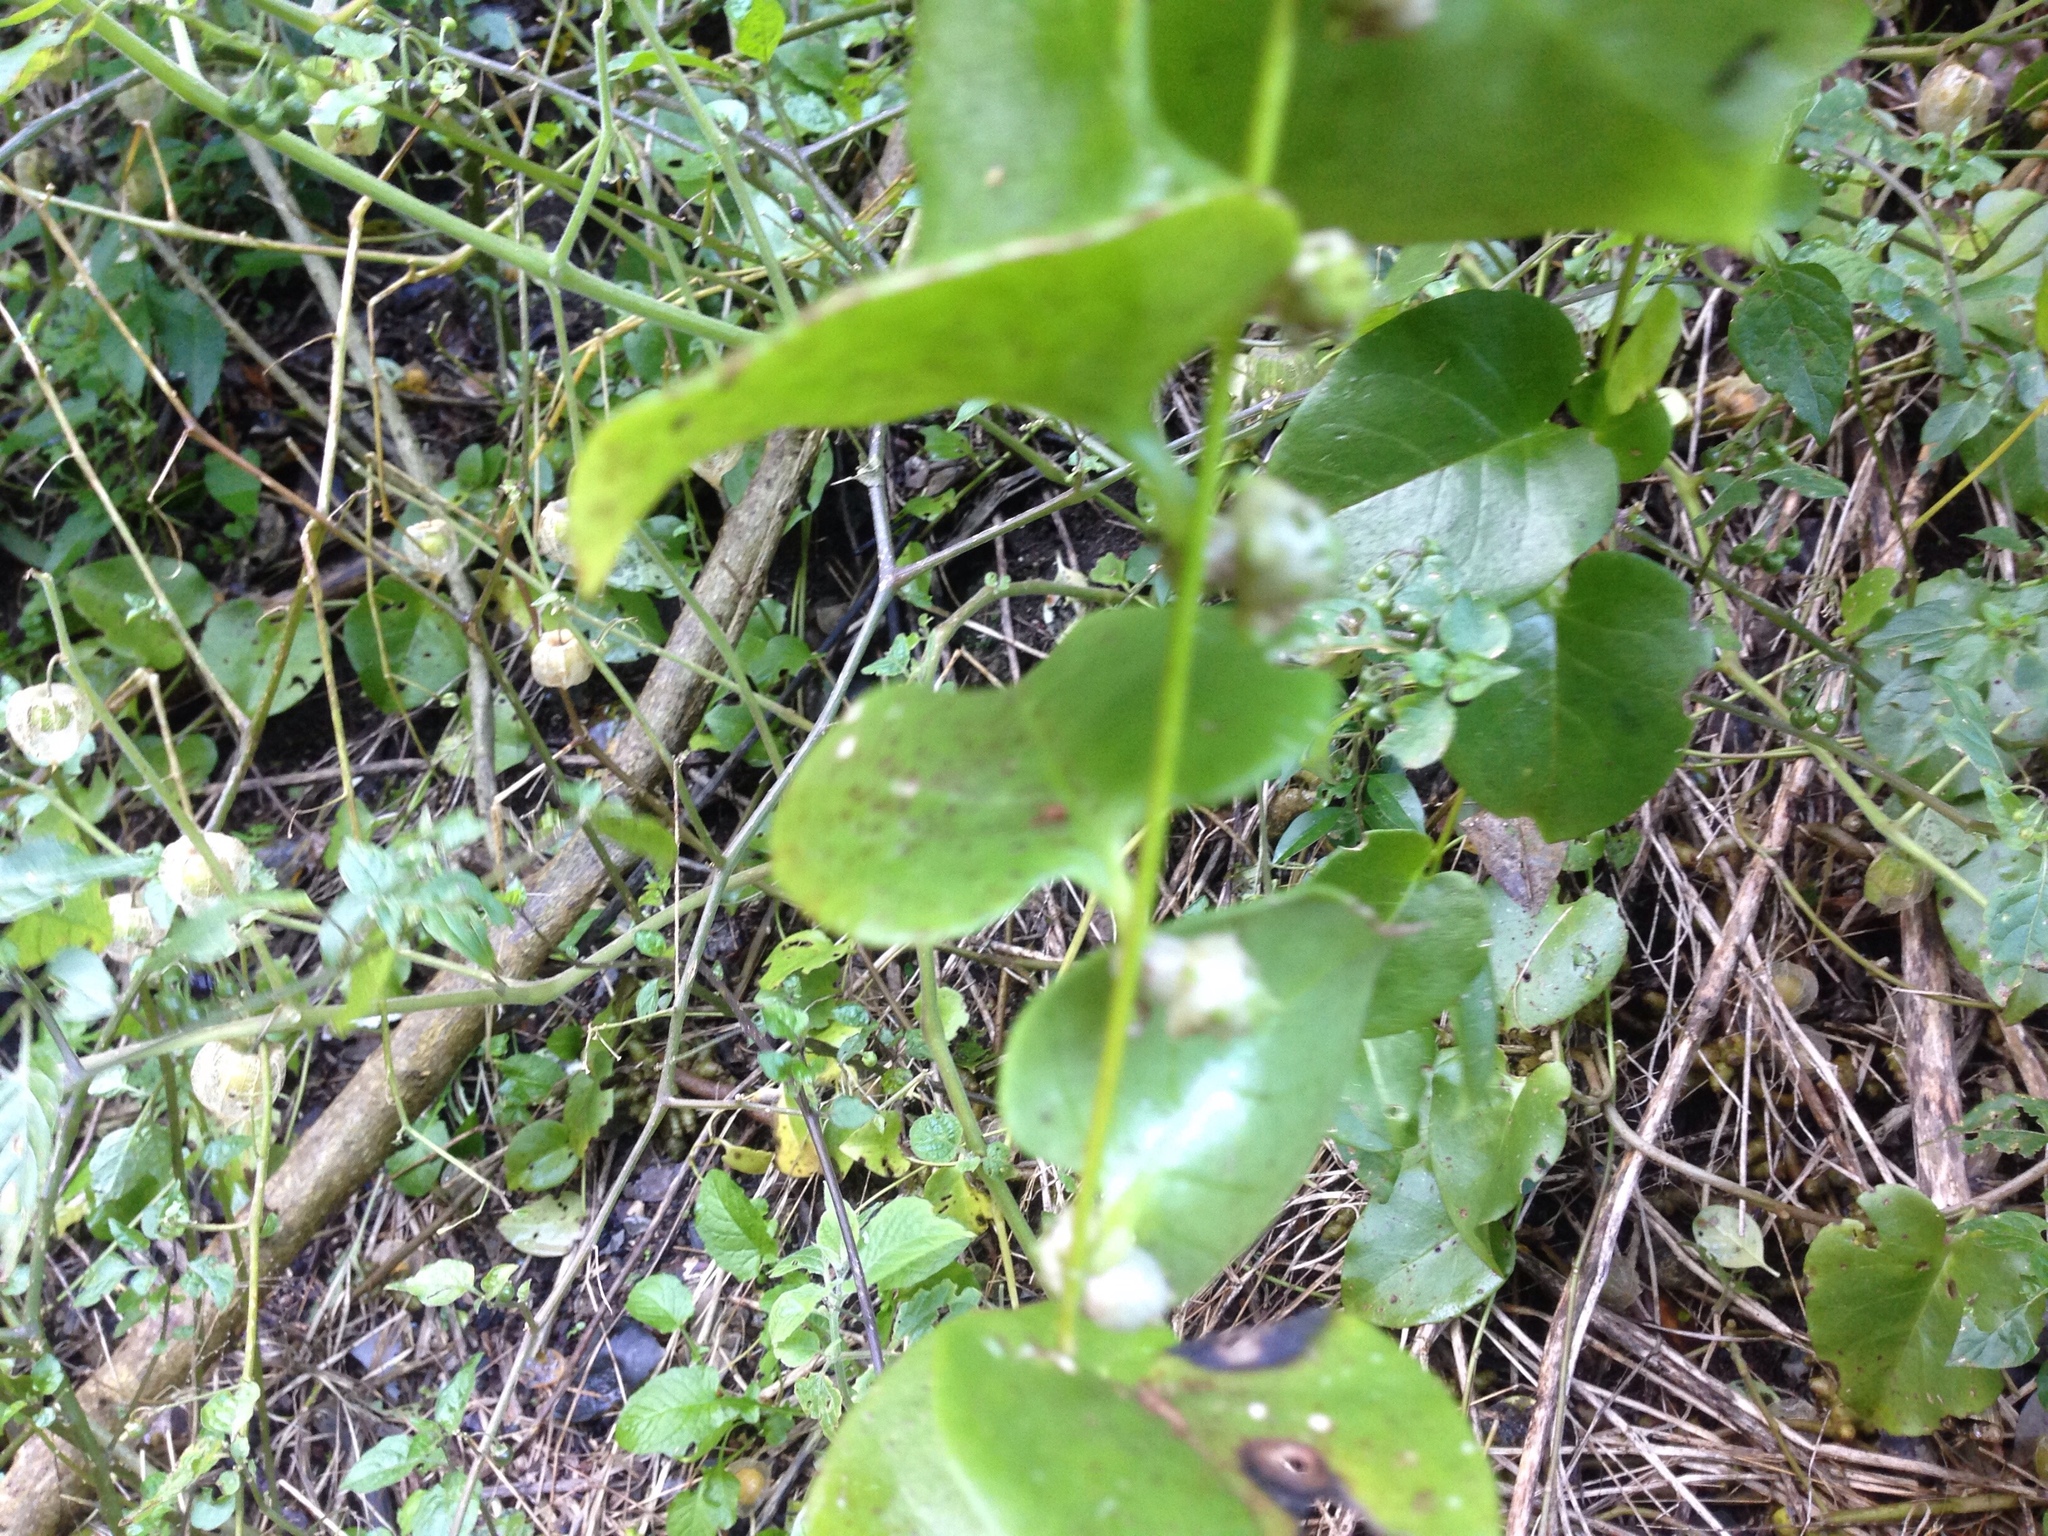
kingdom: Plantae
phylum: Tracheophyta
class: Magnoliopsida
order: Caryophyllales
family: Basellaceae
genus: Anredera
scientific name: Anredera cordifolia
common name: Heartleaf madeiravine
